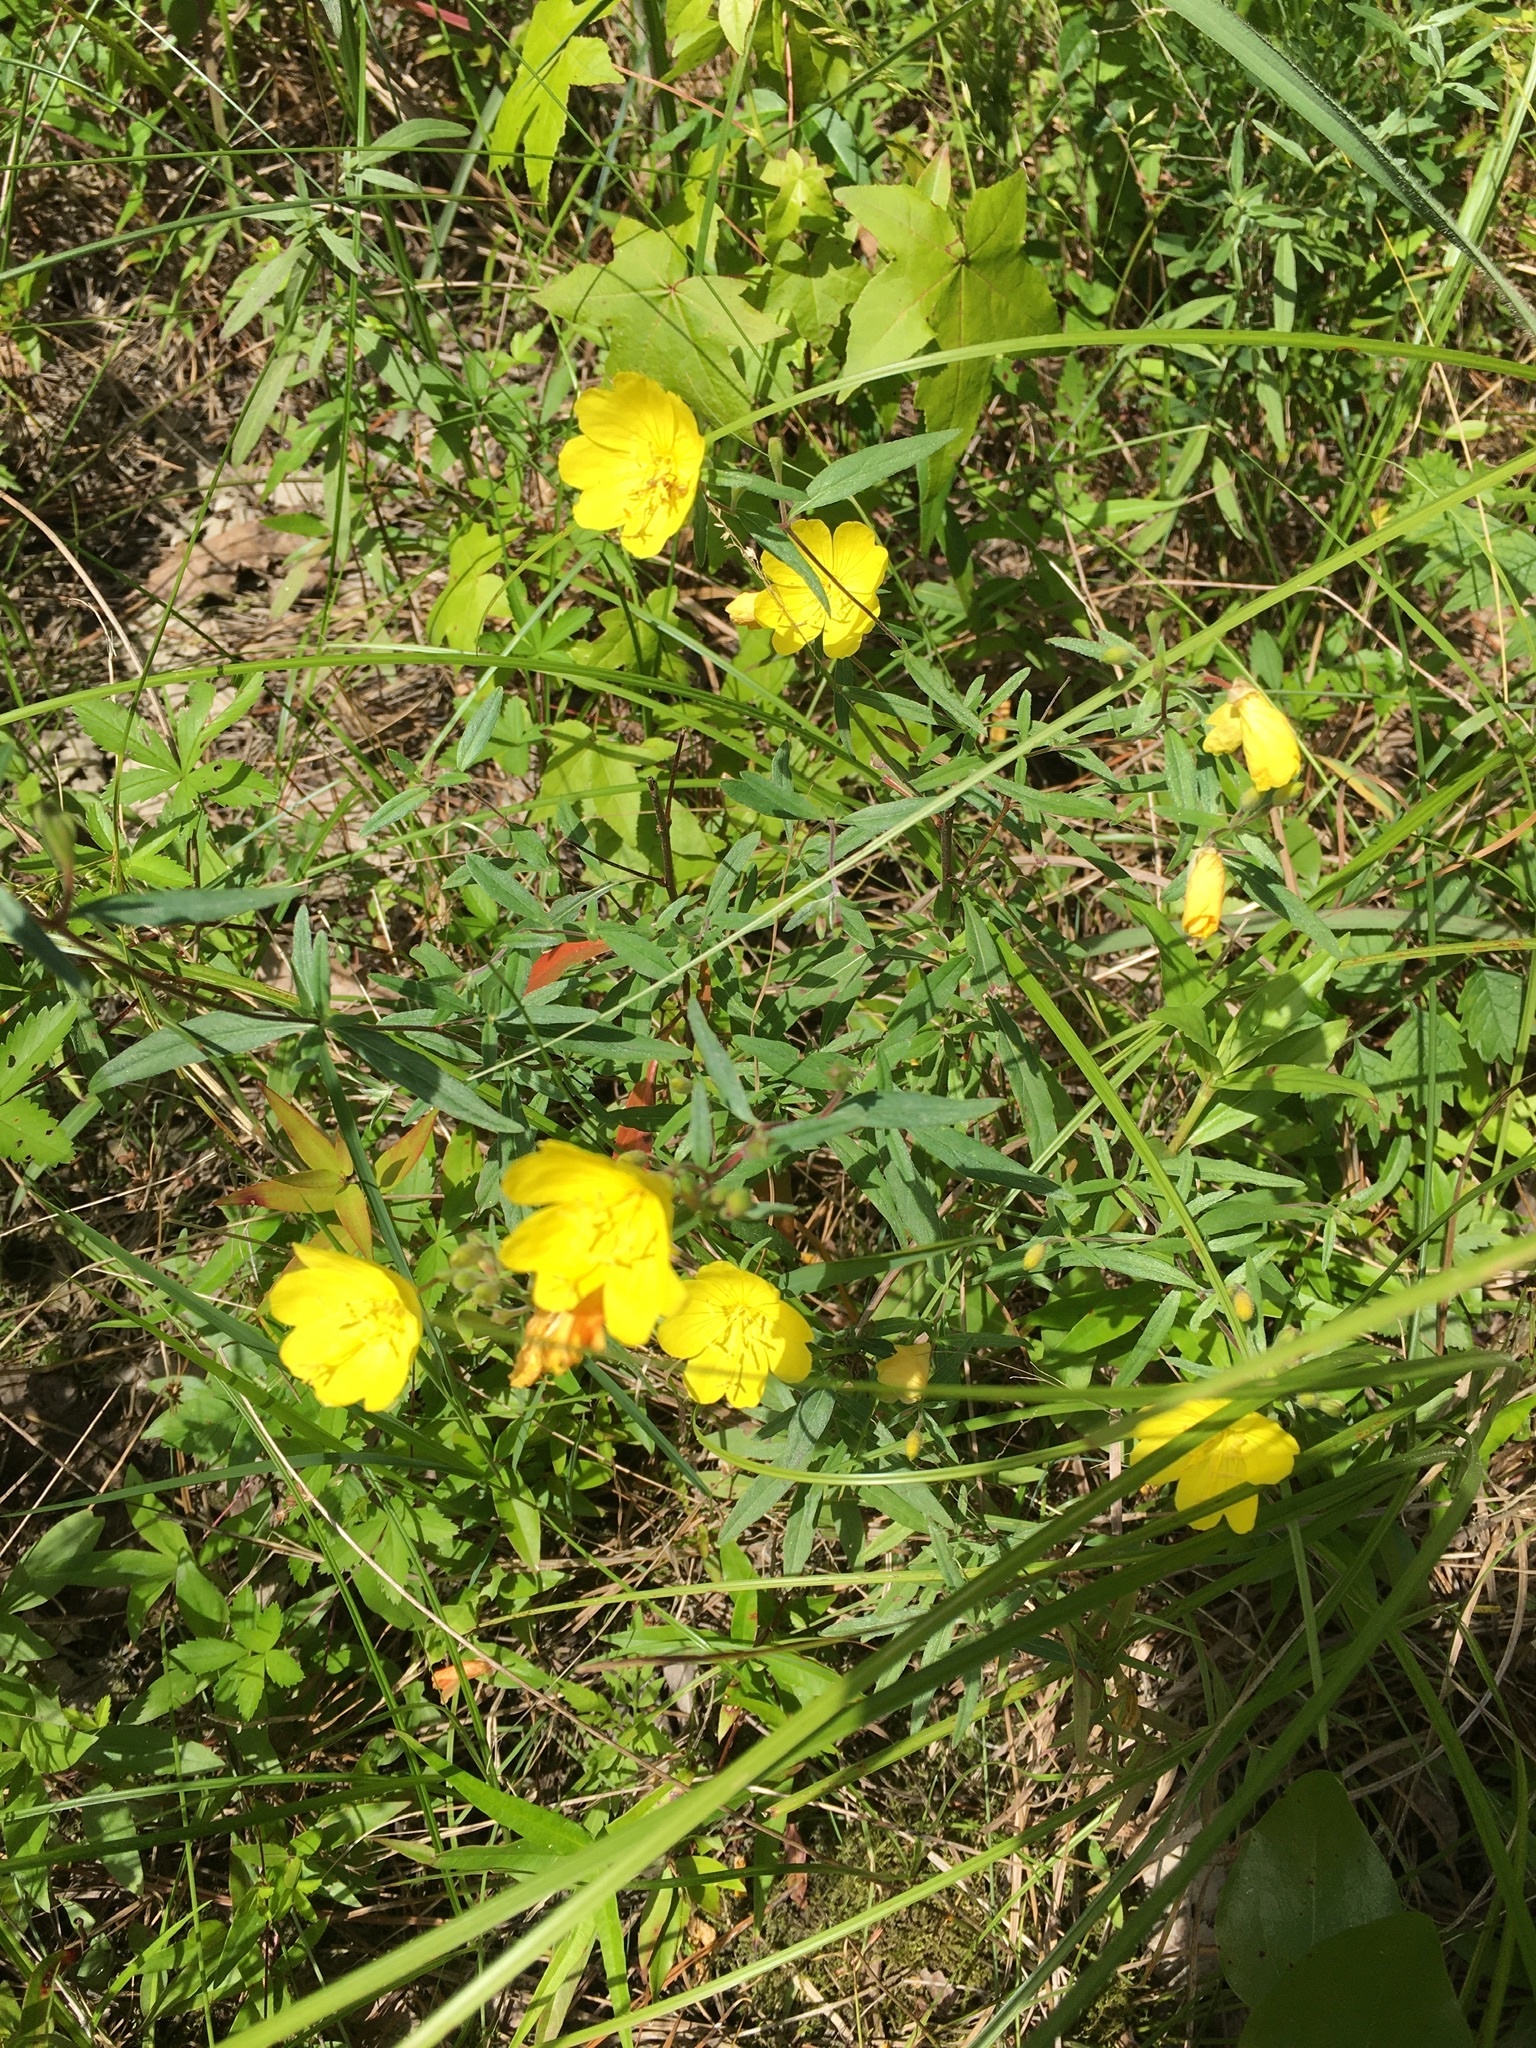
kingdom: Plantae
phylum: Tracheophyta
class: Magnoliopsida
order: Myrtales
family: Onagraceae
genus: Oenothera
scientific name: Oenothera fruticosa
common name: Southern sundrops
